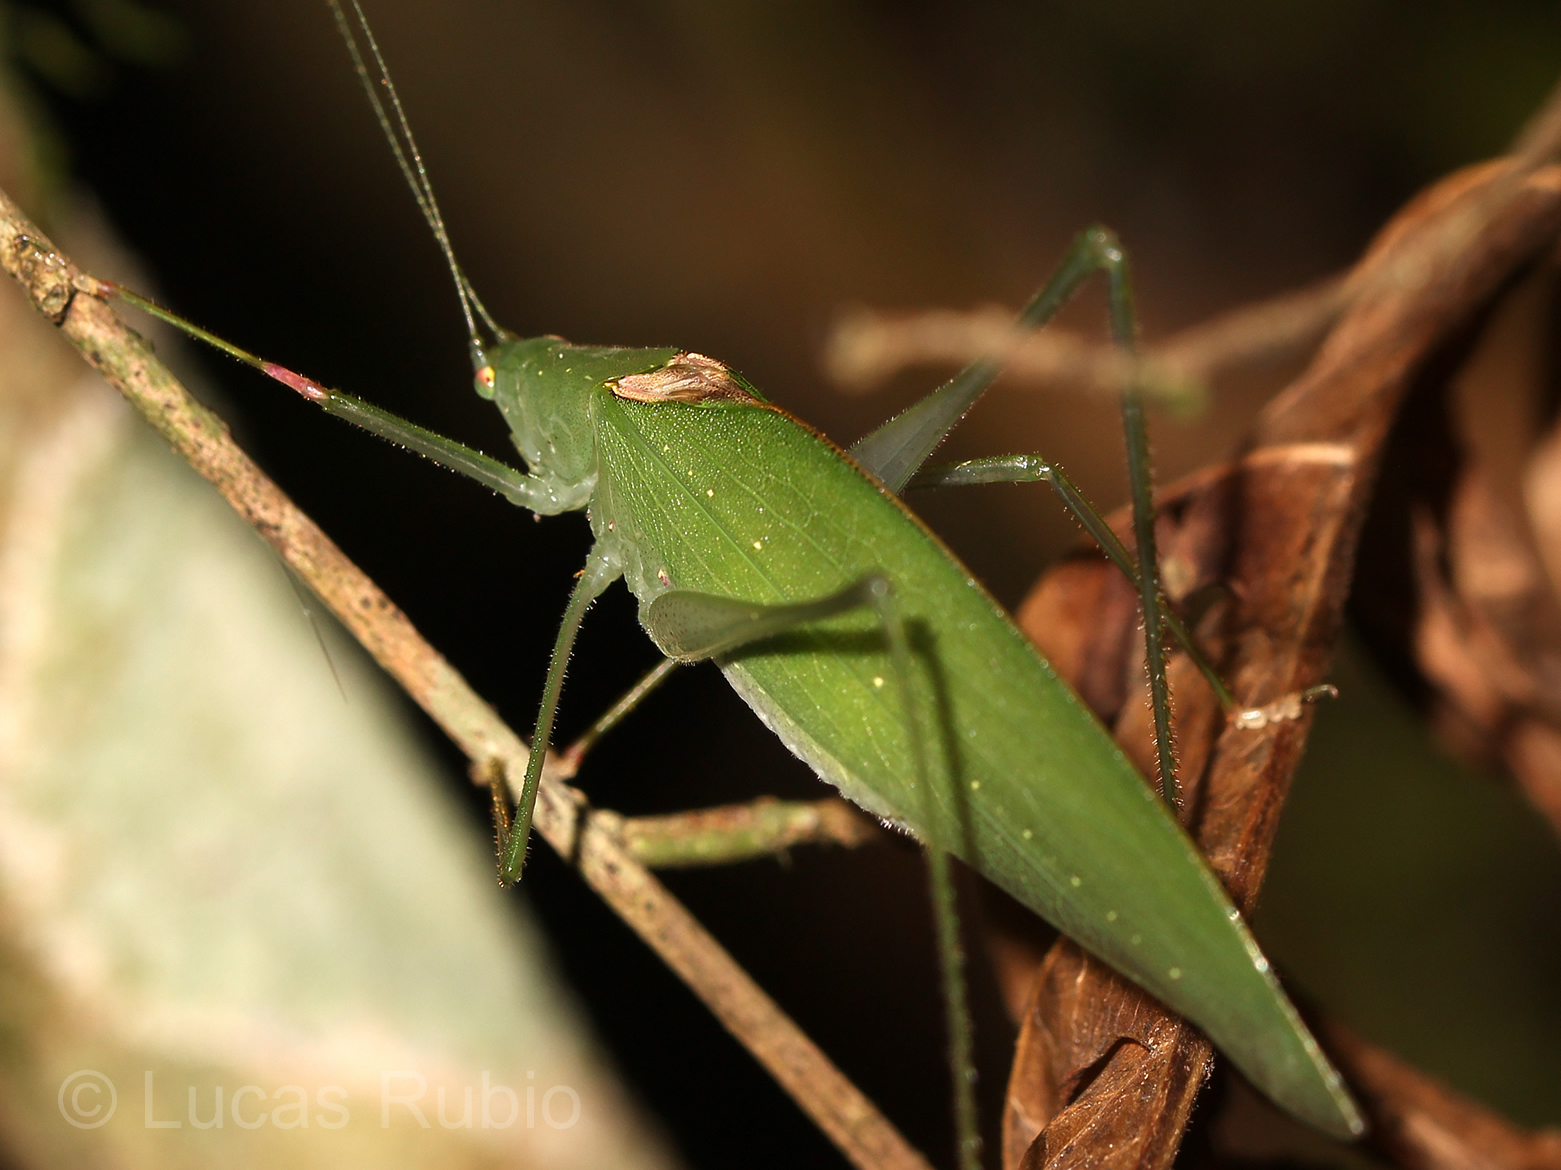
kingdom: Animalia
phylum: Arthropoda
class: Insecta
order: Orthoptera
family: Tettigoniidae
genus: Anaulacomera
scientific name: Anaulacomera trispinata
